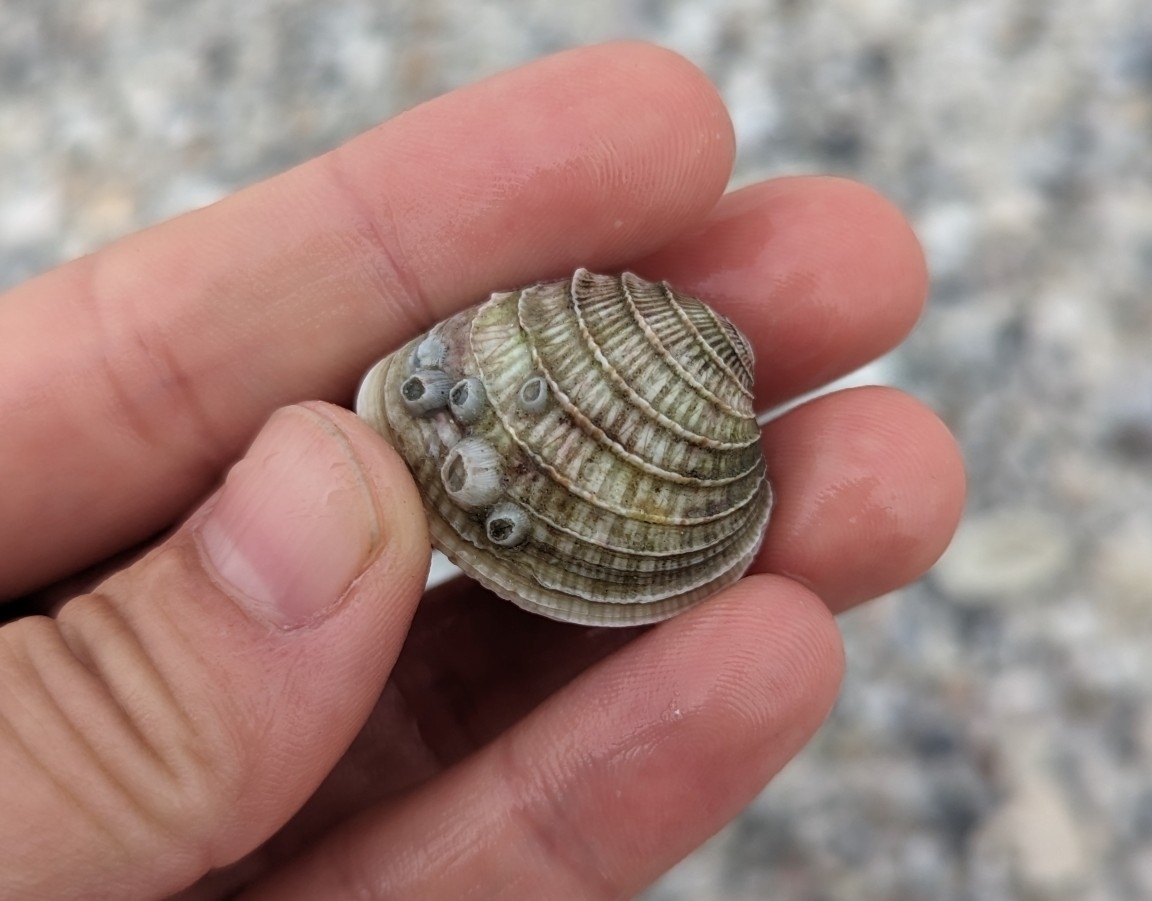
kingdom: Animalia
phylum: Mollusca
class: Bivalvia
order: Venerida
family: Veneridae
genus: Chione
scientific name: Chione elevata
